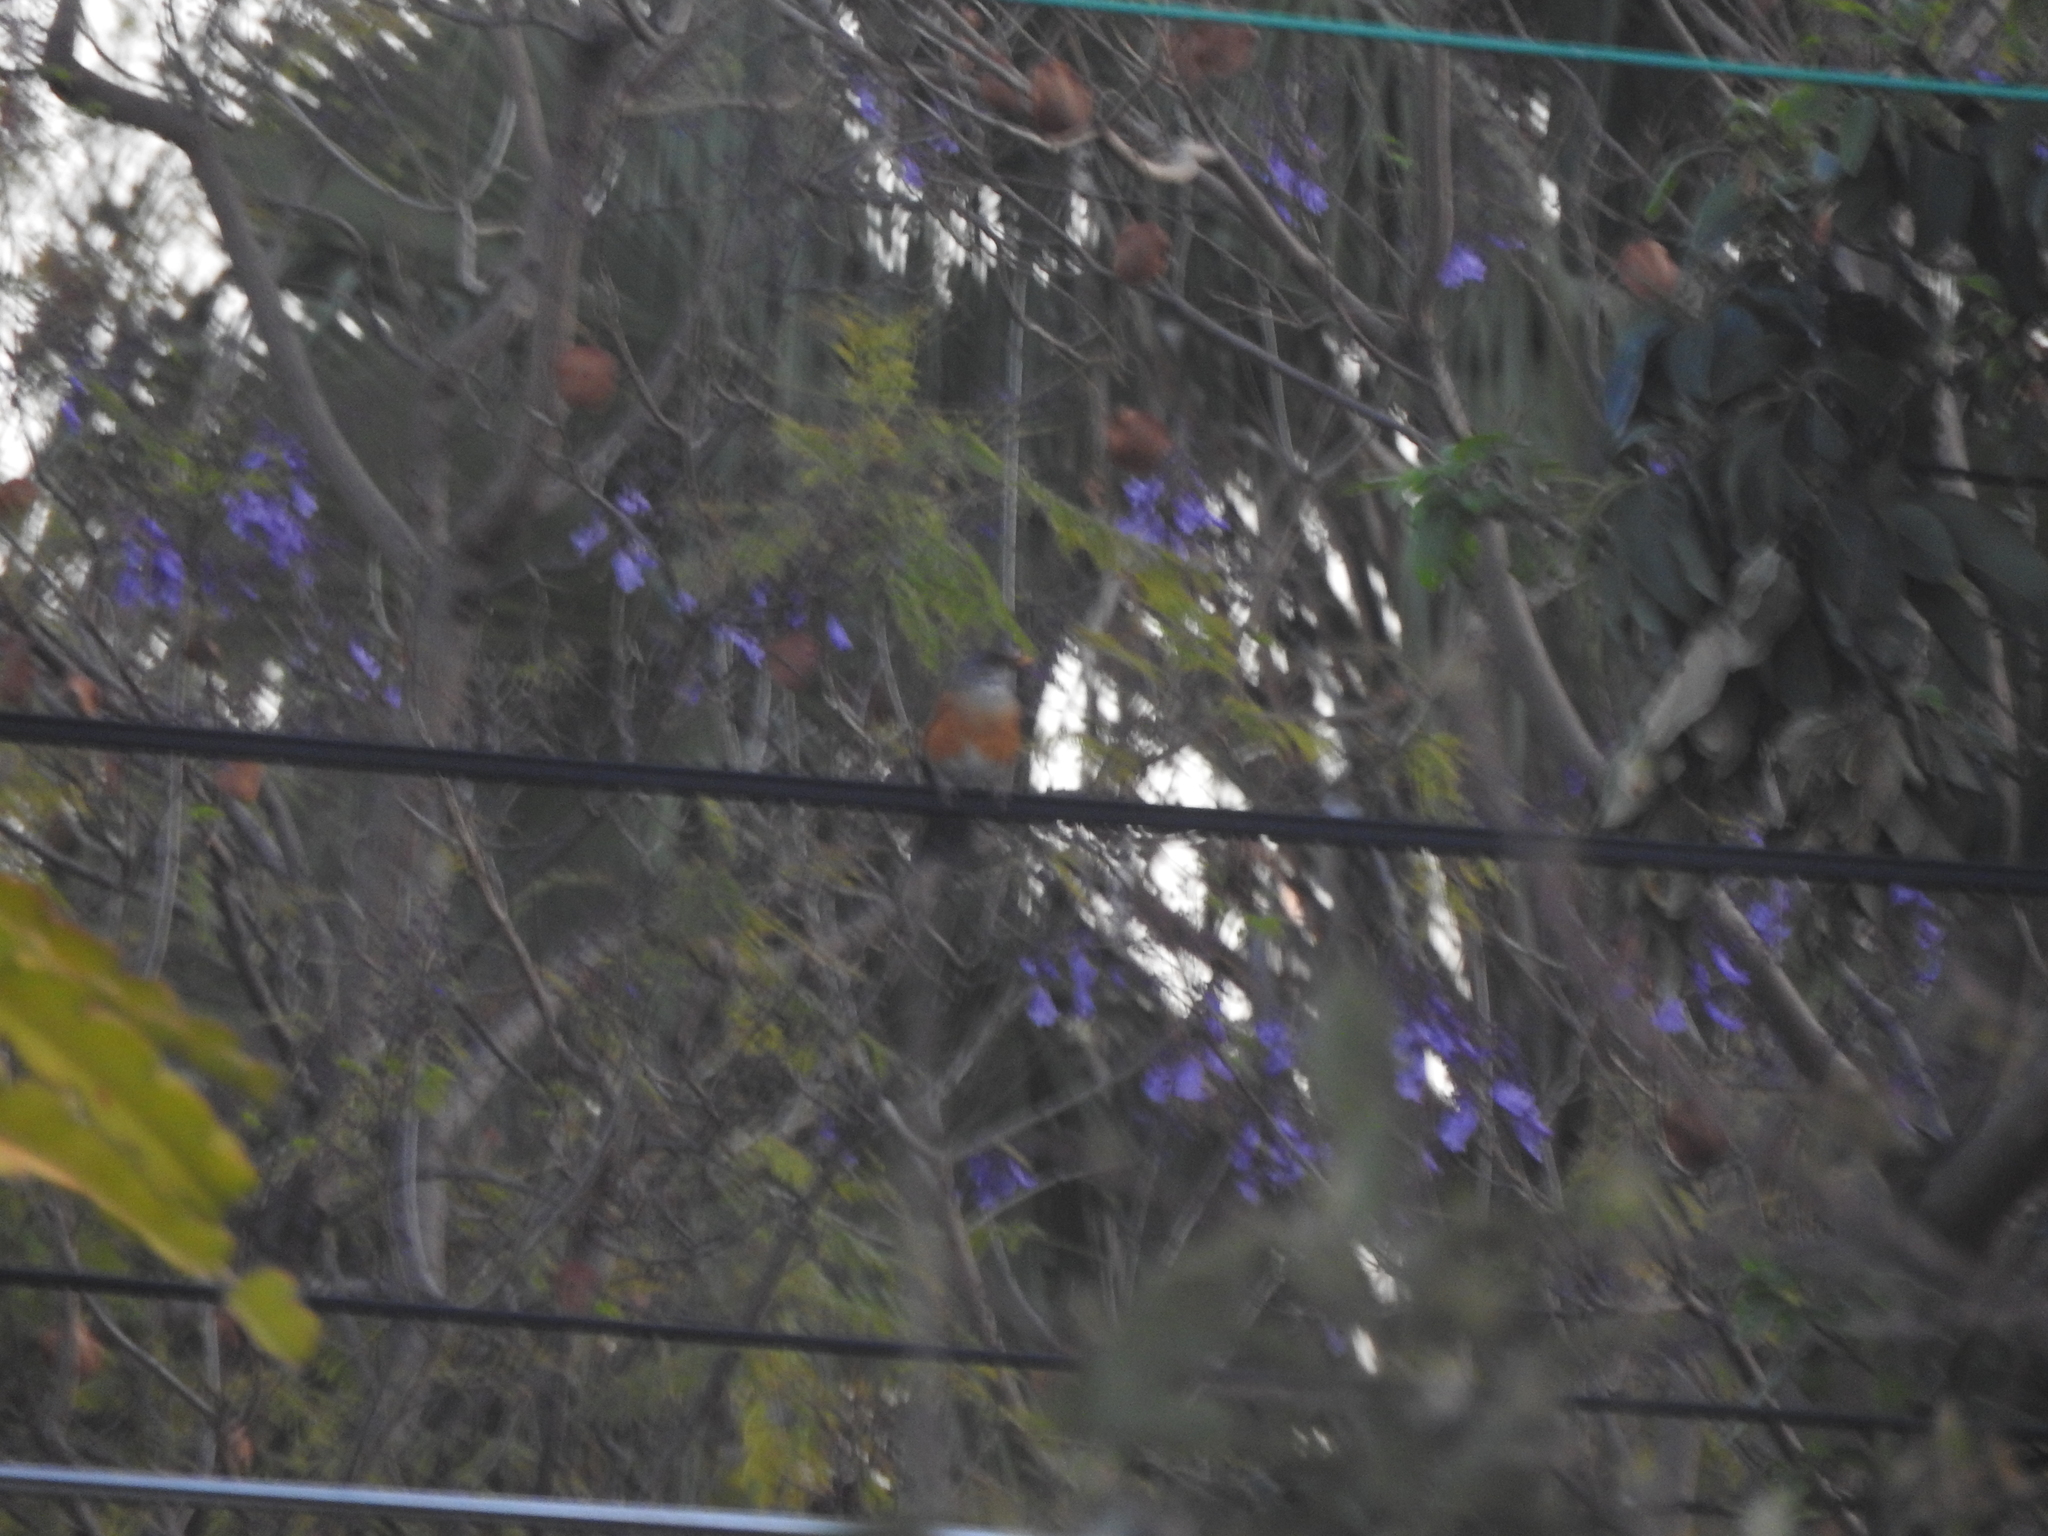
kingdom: Animalia
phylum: Chordata
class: Aves
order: Passeriformes
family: Turdidae
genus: Turdus
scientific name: Turdus rufopalliatus
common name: Rufous-backed robin
